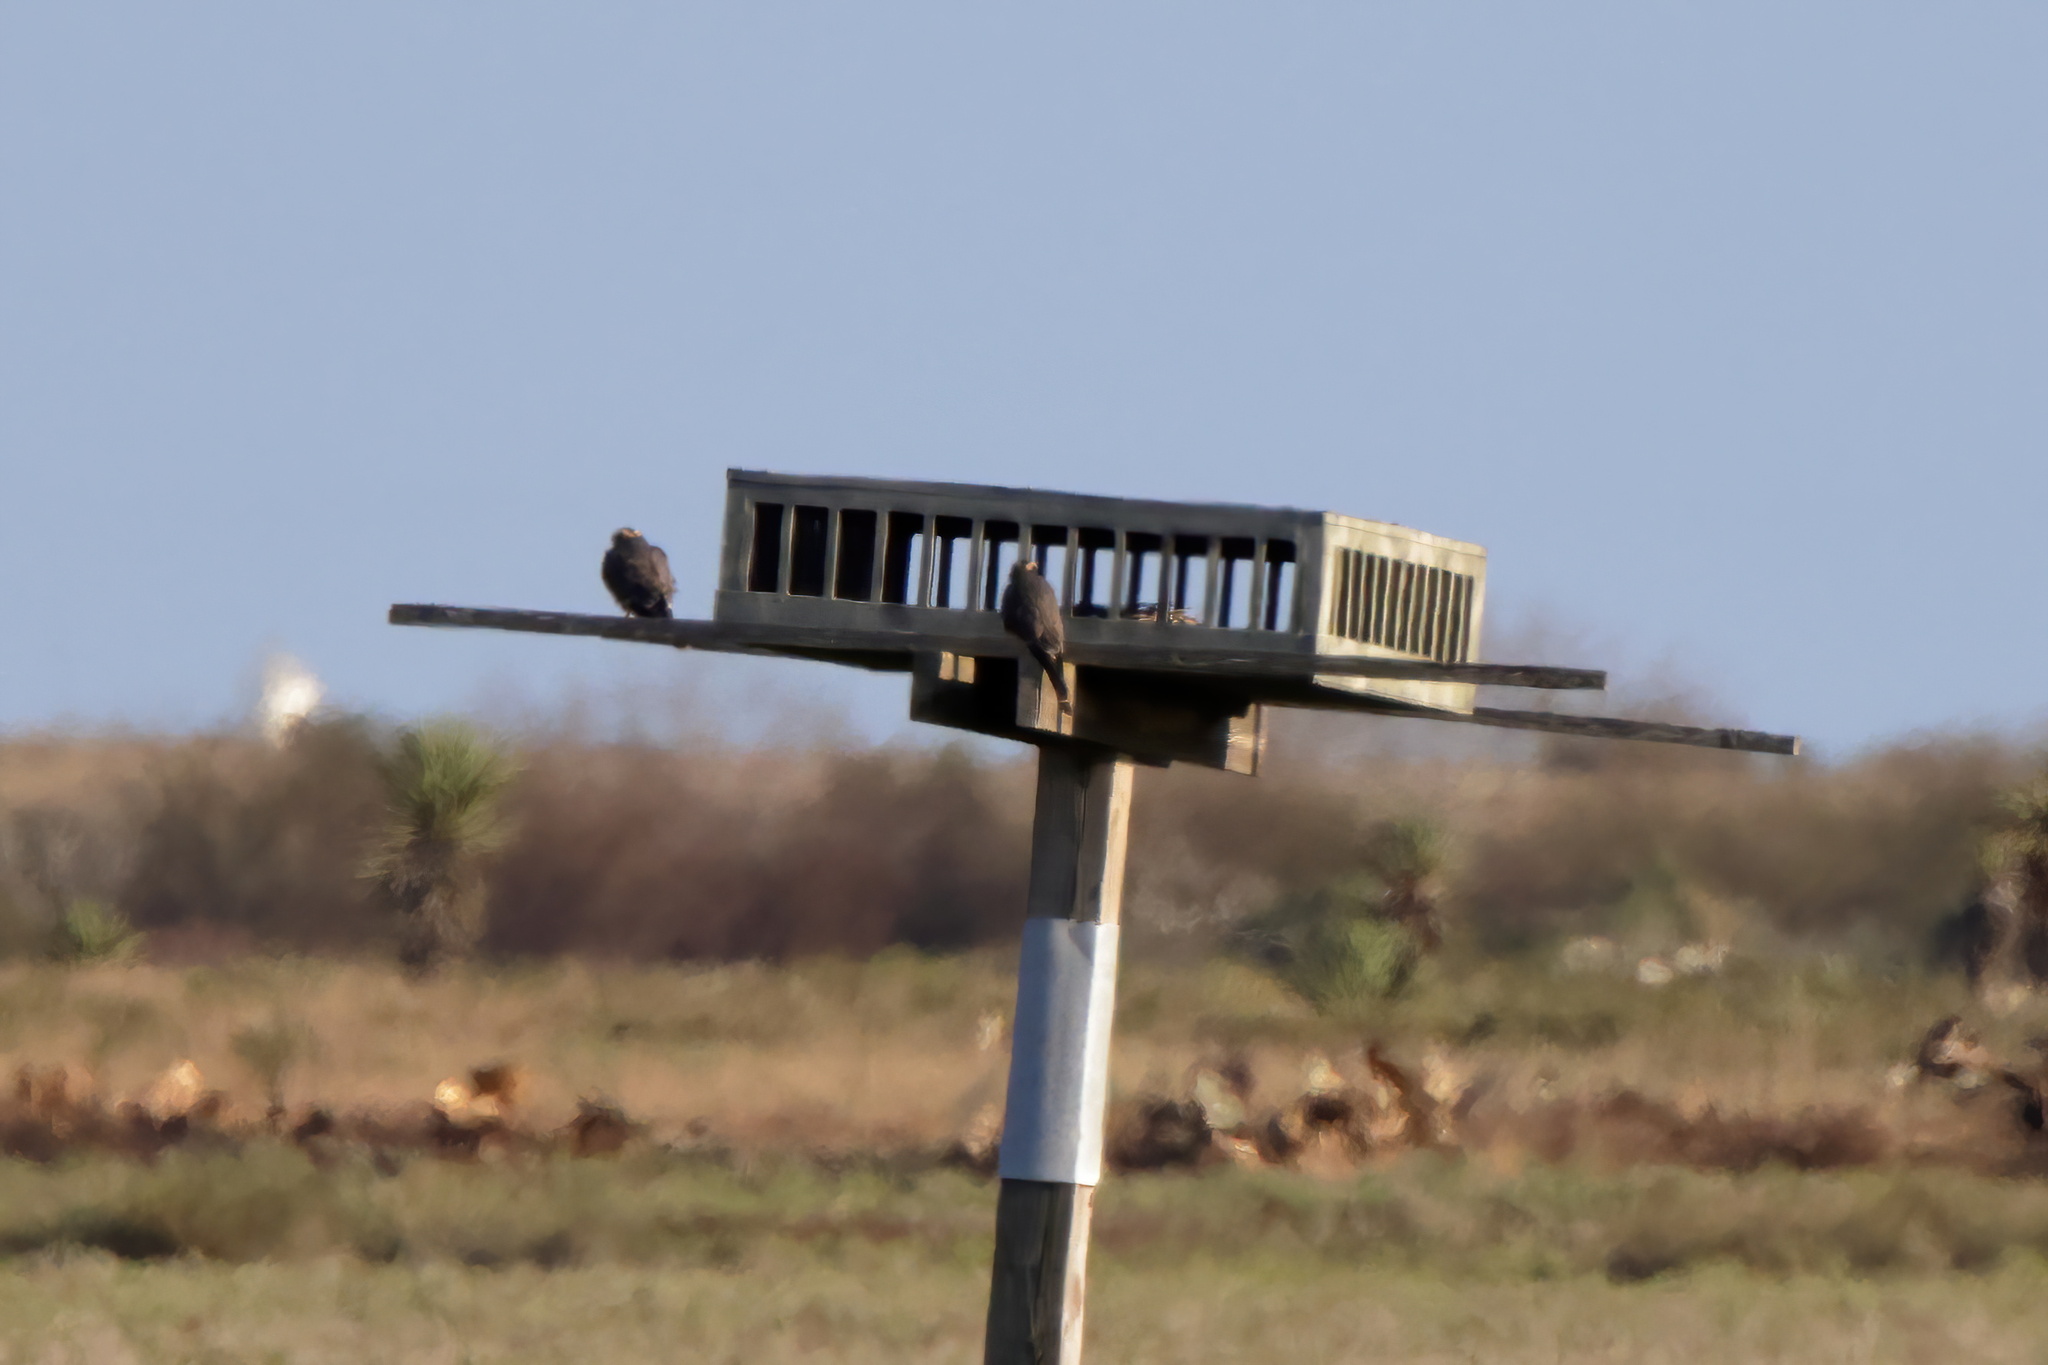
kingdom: Animalia
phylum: Chordata
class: Aves
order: Falconiformes
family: Falconidae
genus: Falco
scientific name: Falco femoralis
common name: Aplomado falcon
